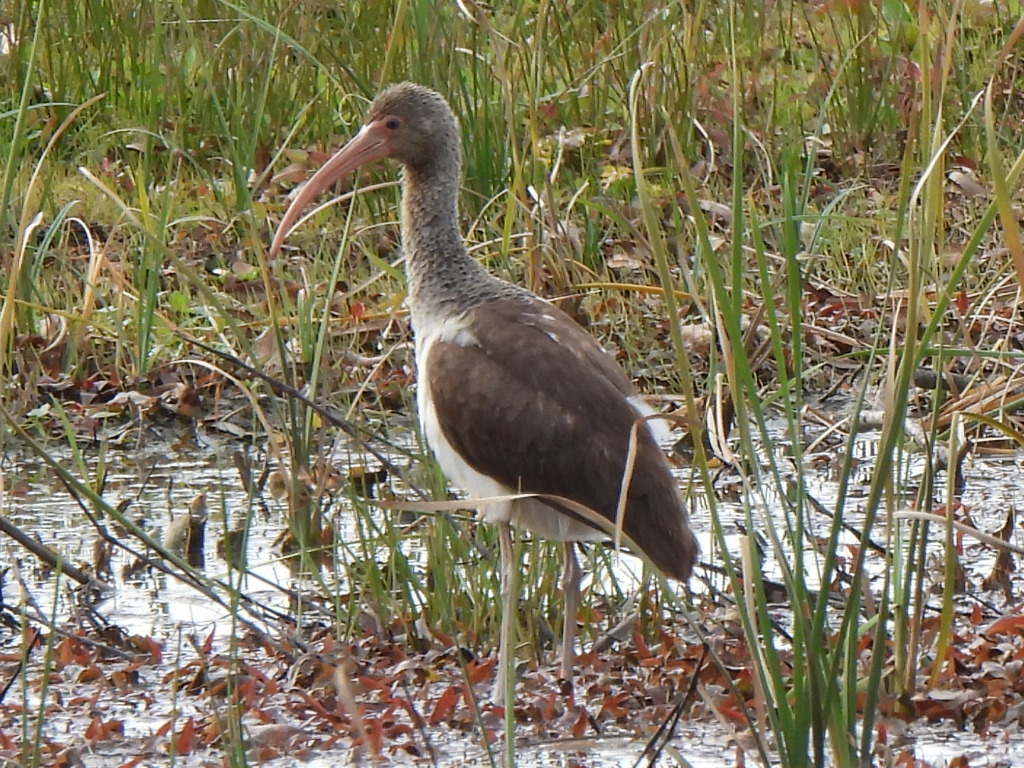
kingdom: Animalia
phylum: Chordata
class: Aves
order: Pelecaniformes
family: Threskiornithidae
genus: Eudocimus
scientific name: Eudocimus albus
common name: White ibis
